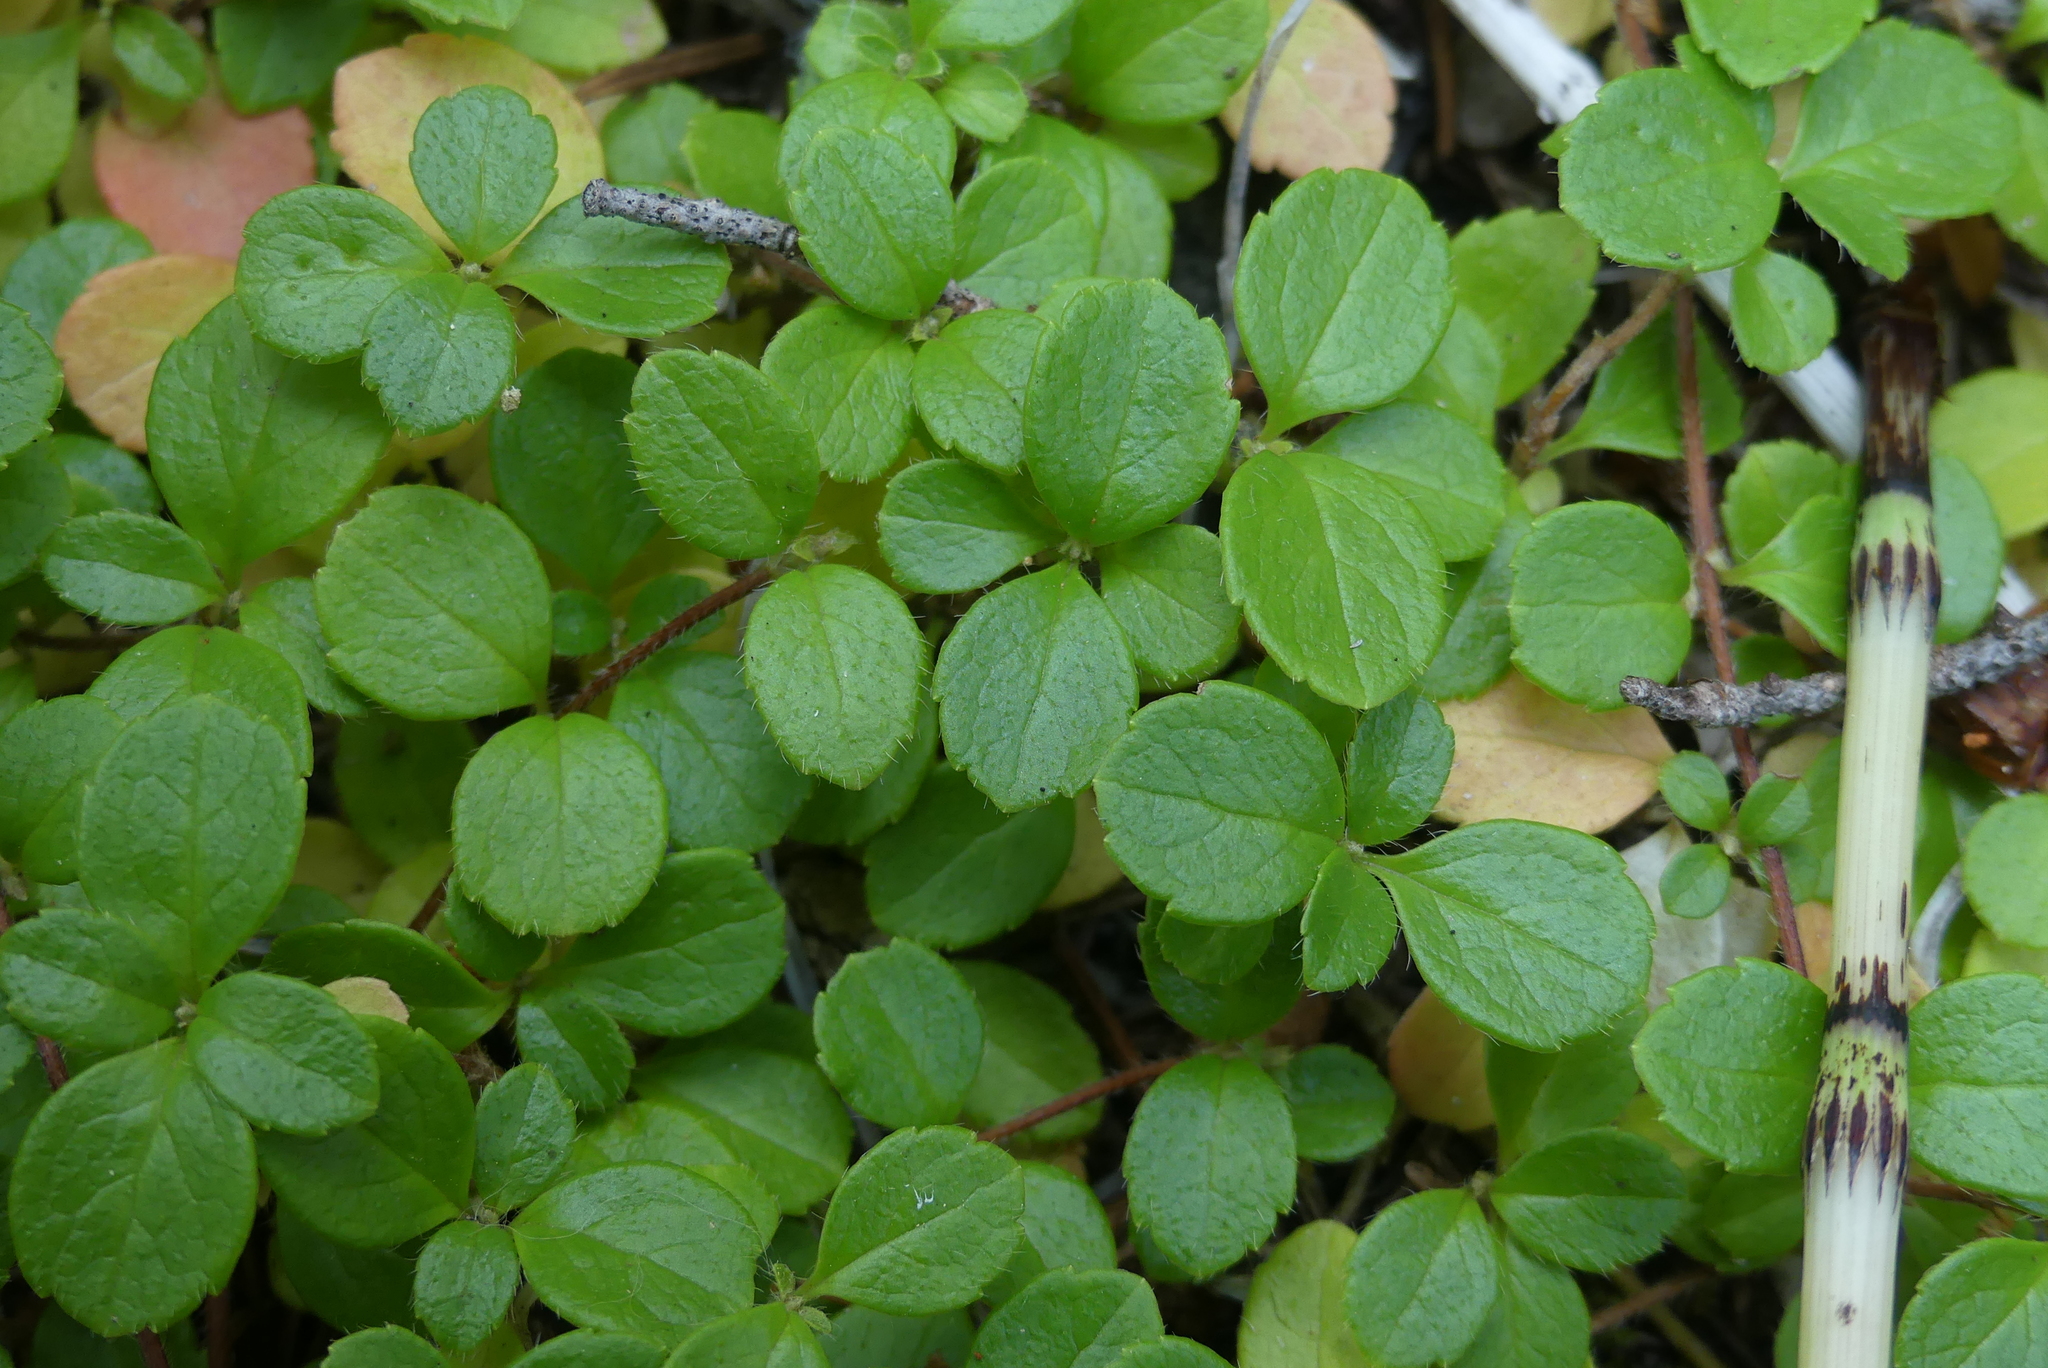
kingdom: Plantae
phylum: Tracheophyta
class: Magnoliopsida
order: Dipsacales
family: Caprifoliaceae
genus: Linnaea
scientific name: Linnaea borealis
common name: Twinflower
